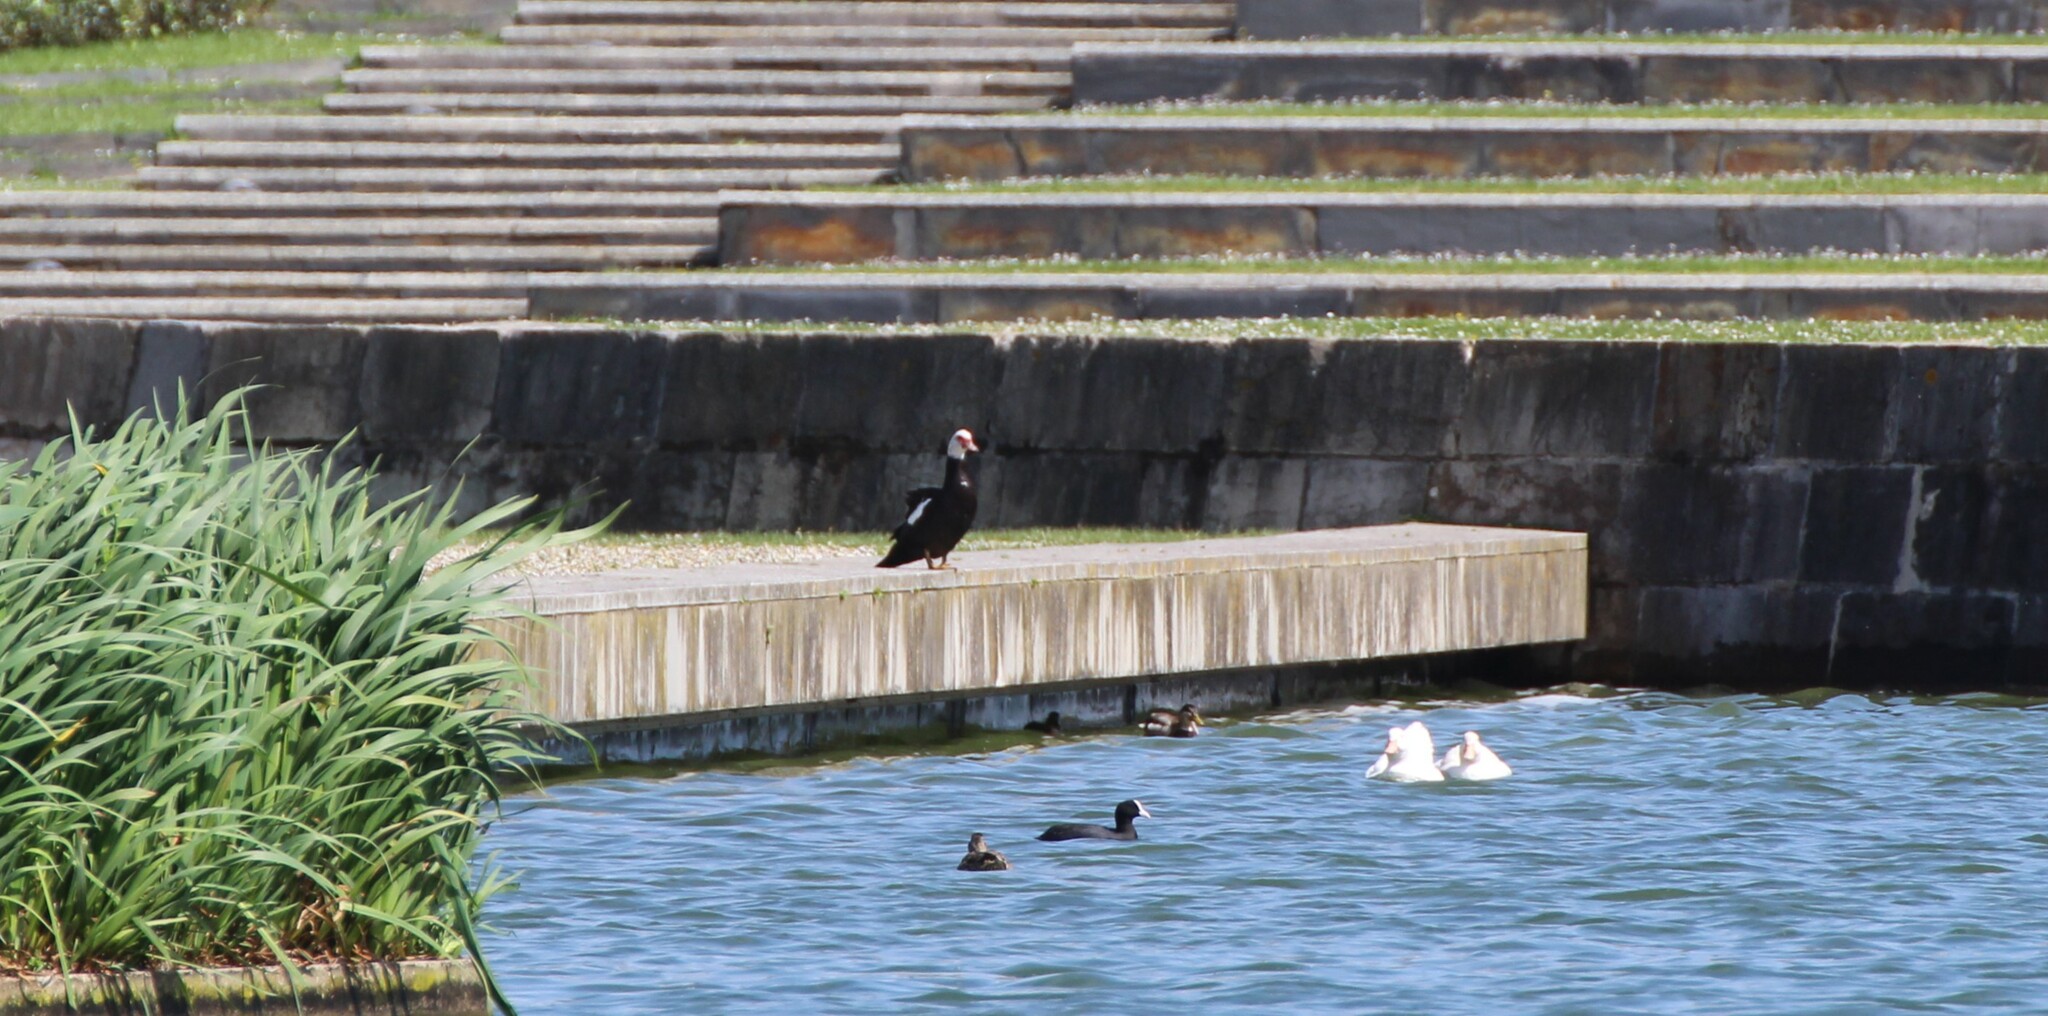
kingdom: Animalia
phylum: Chordata
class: Aves
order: Anseriformes
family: Anatidae
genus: Cairina
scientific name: Cairina moschata
